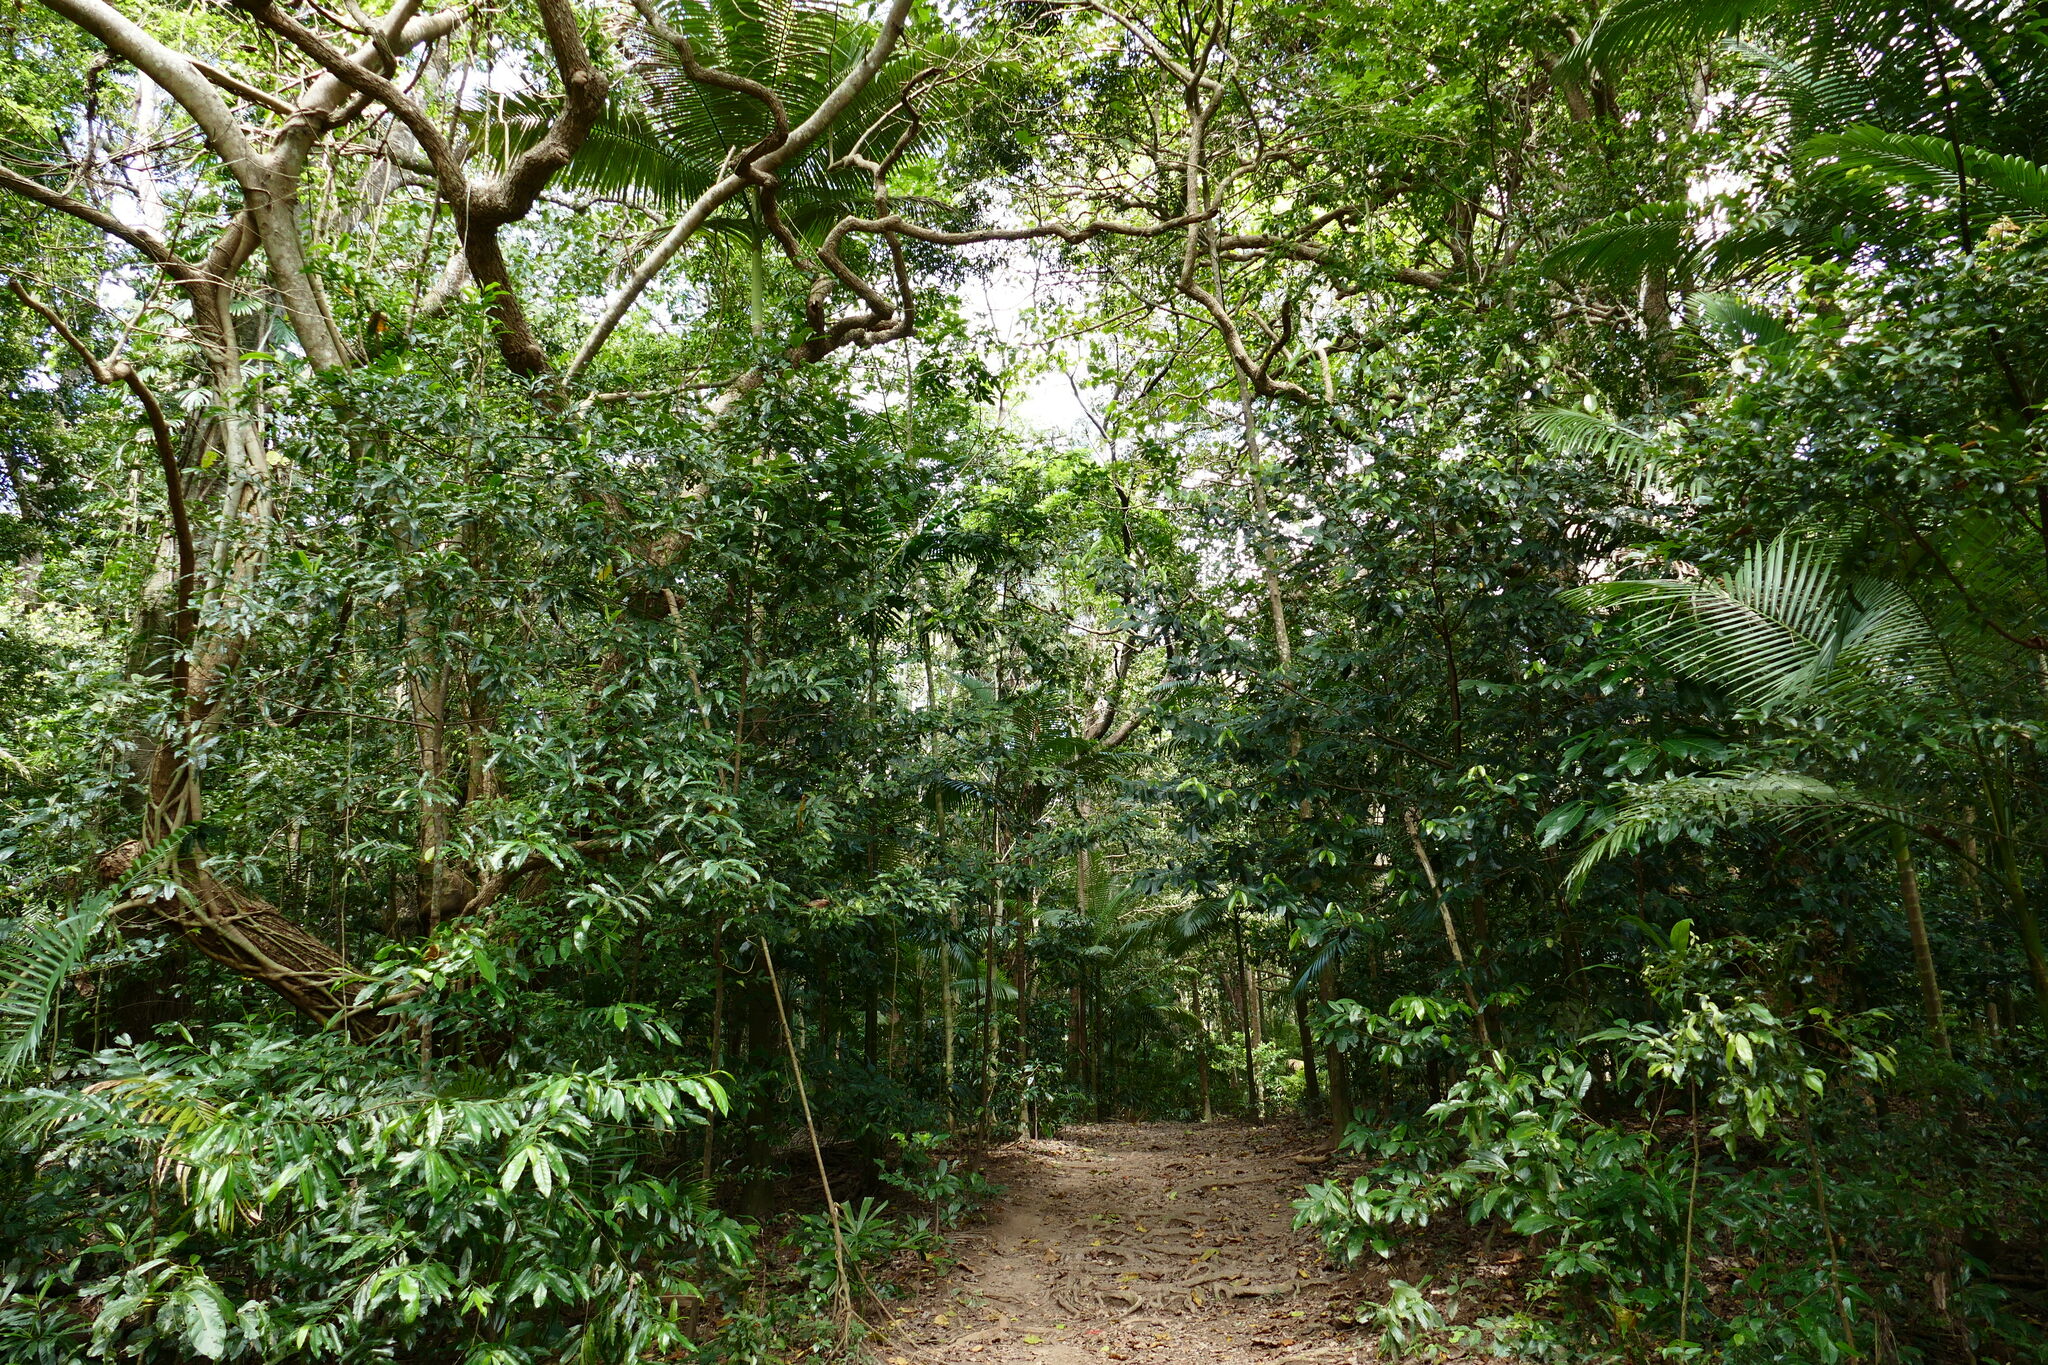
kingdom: Plantae
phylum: Tracheophyta
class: Liliopsida
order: Arecales
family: Arecaceae
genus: Archontophoenix
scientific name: Archontophoenix alexandrae
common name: Alexandra palm
